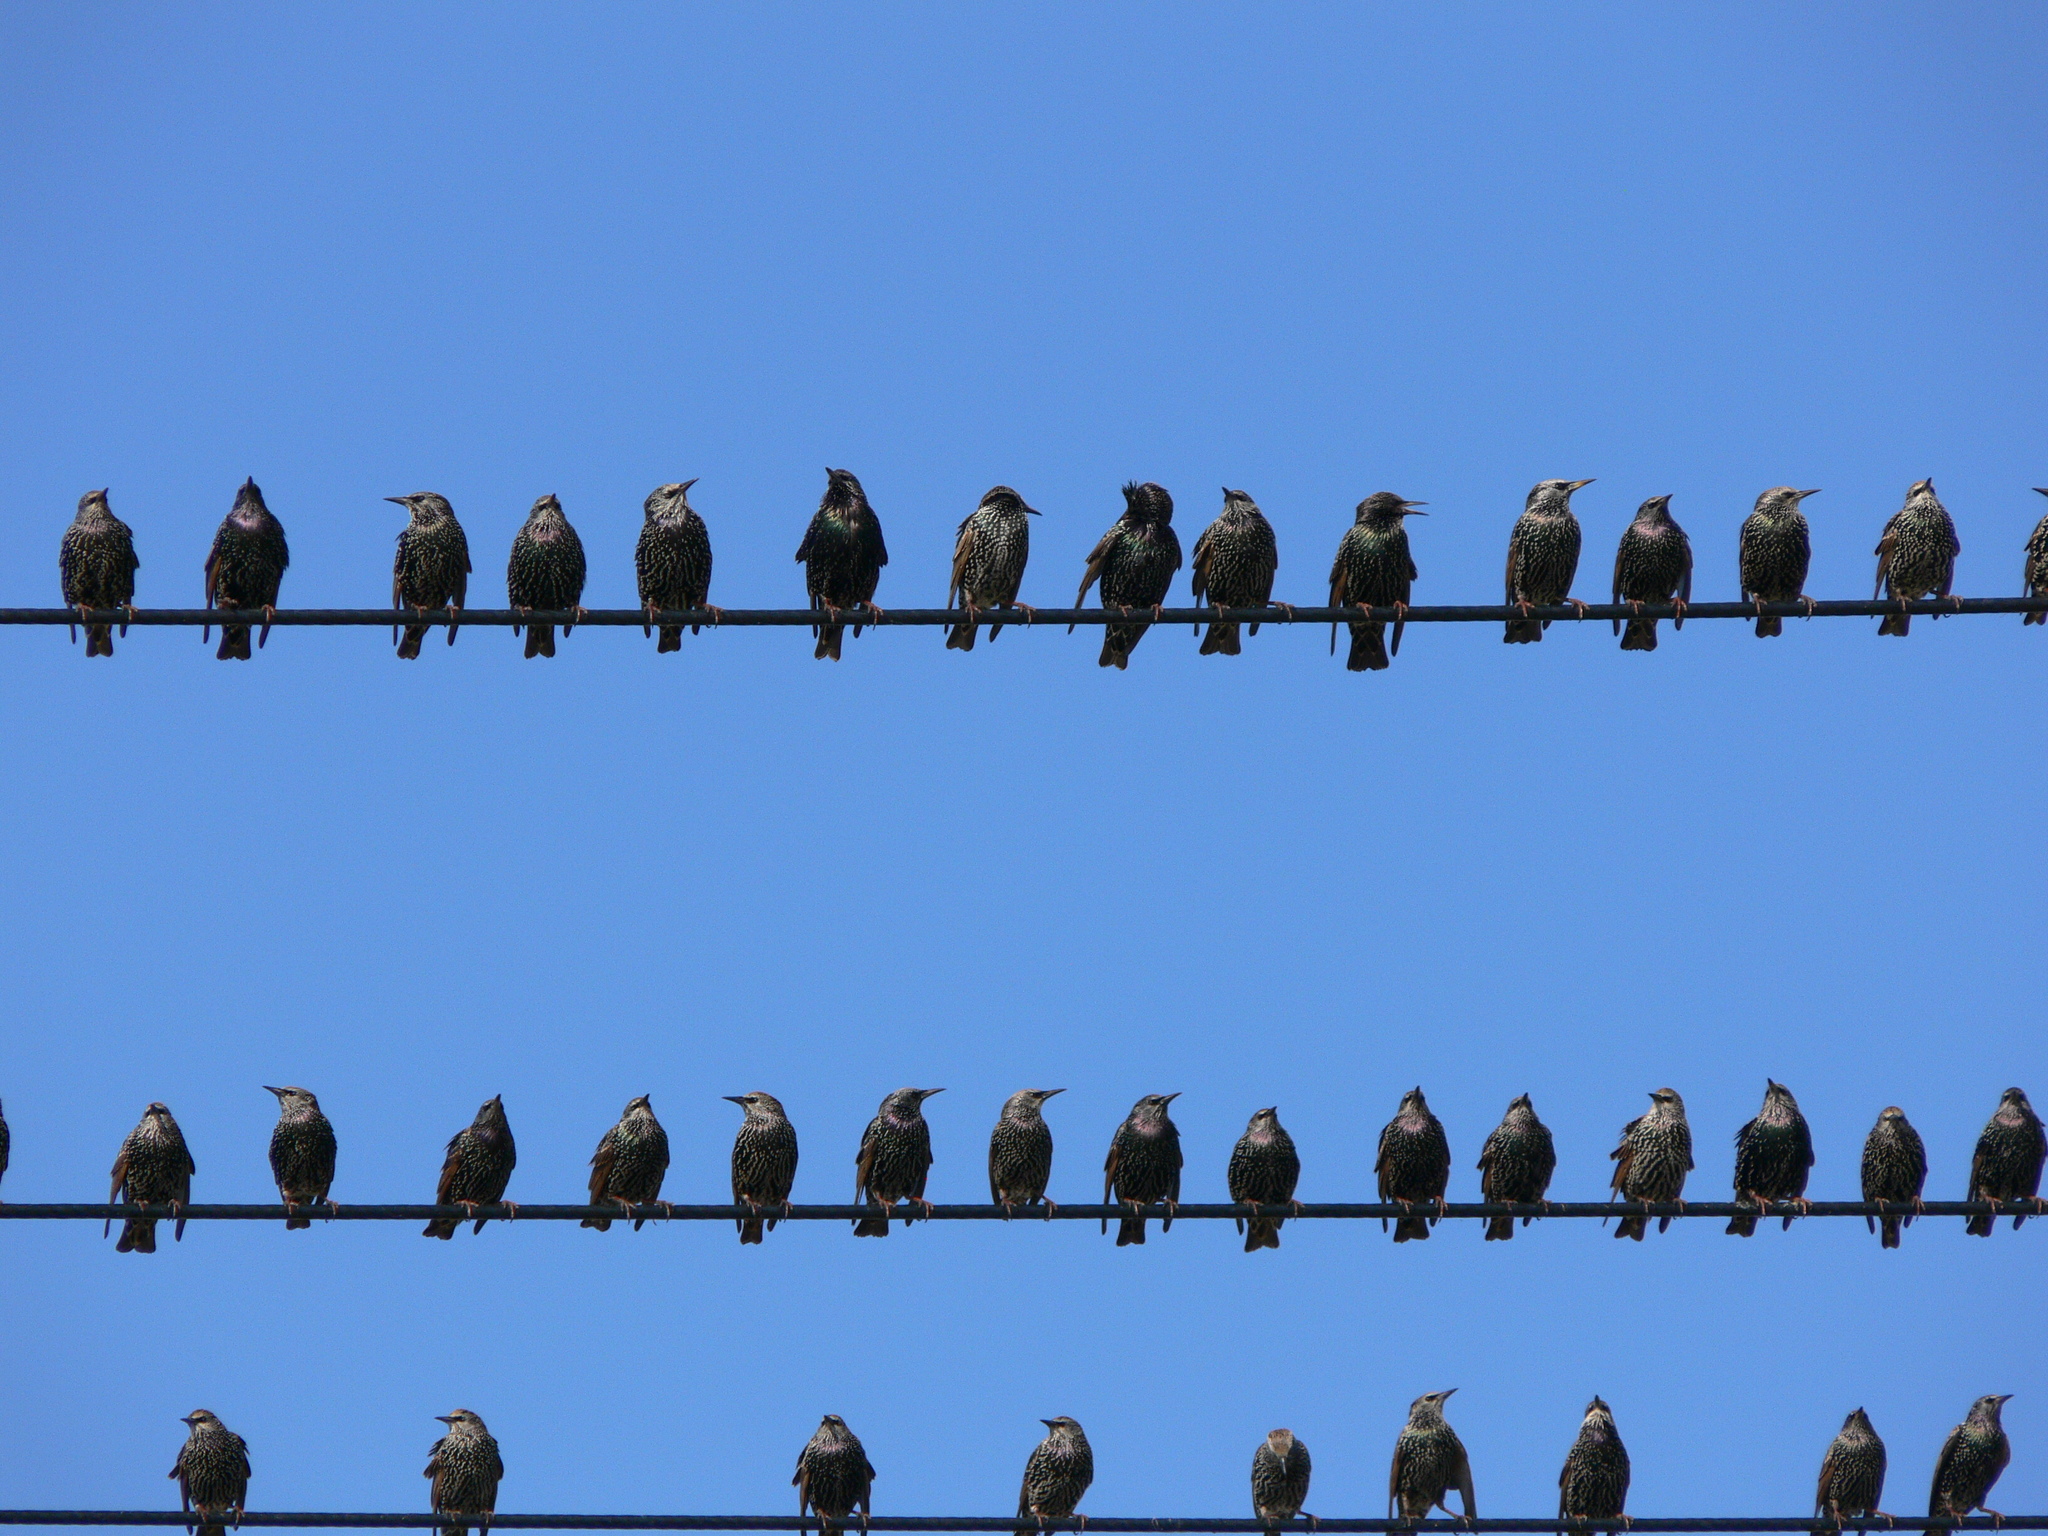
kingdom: Animalia
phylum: Chordata
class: Aves
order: Passeriformes
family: Sturnidae
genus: Sturnus
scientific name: Sturnus vulgaris
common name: Common starling
